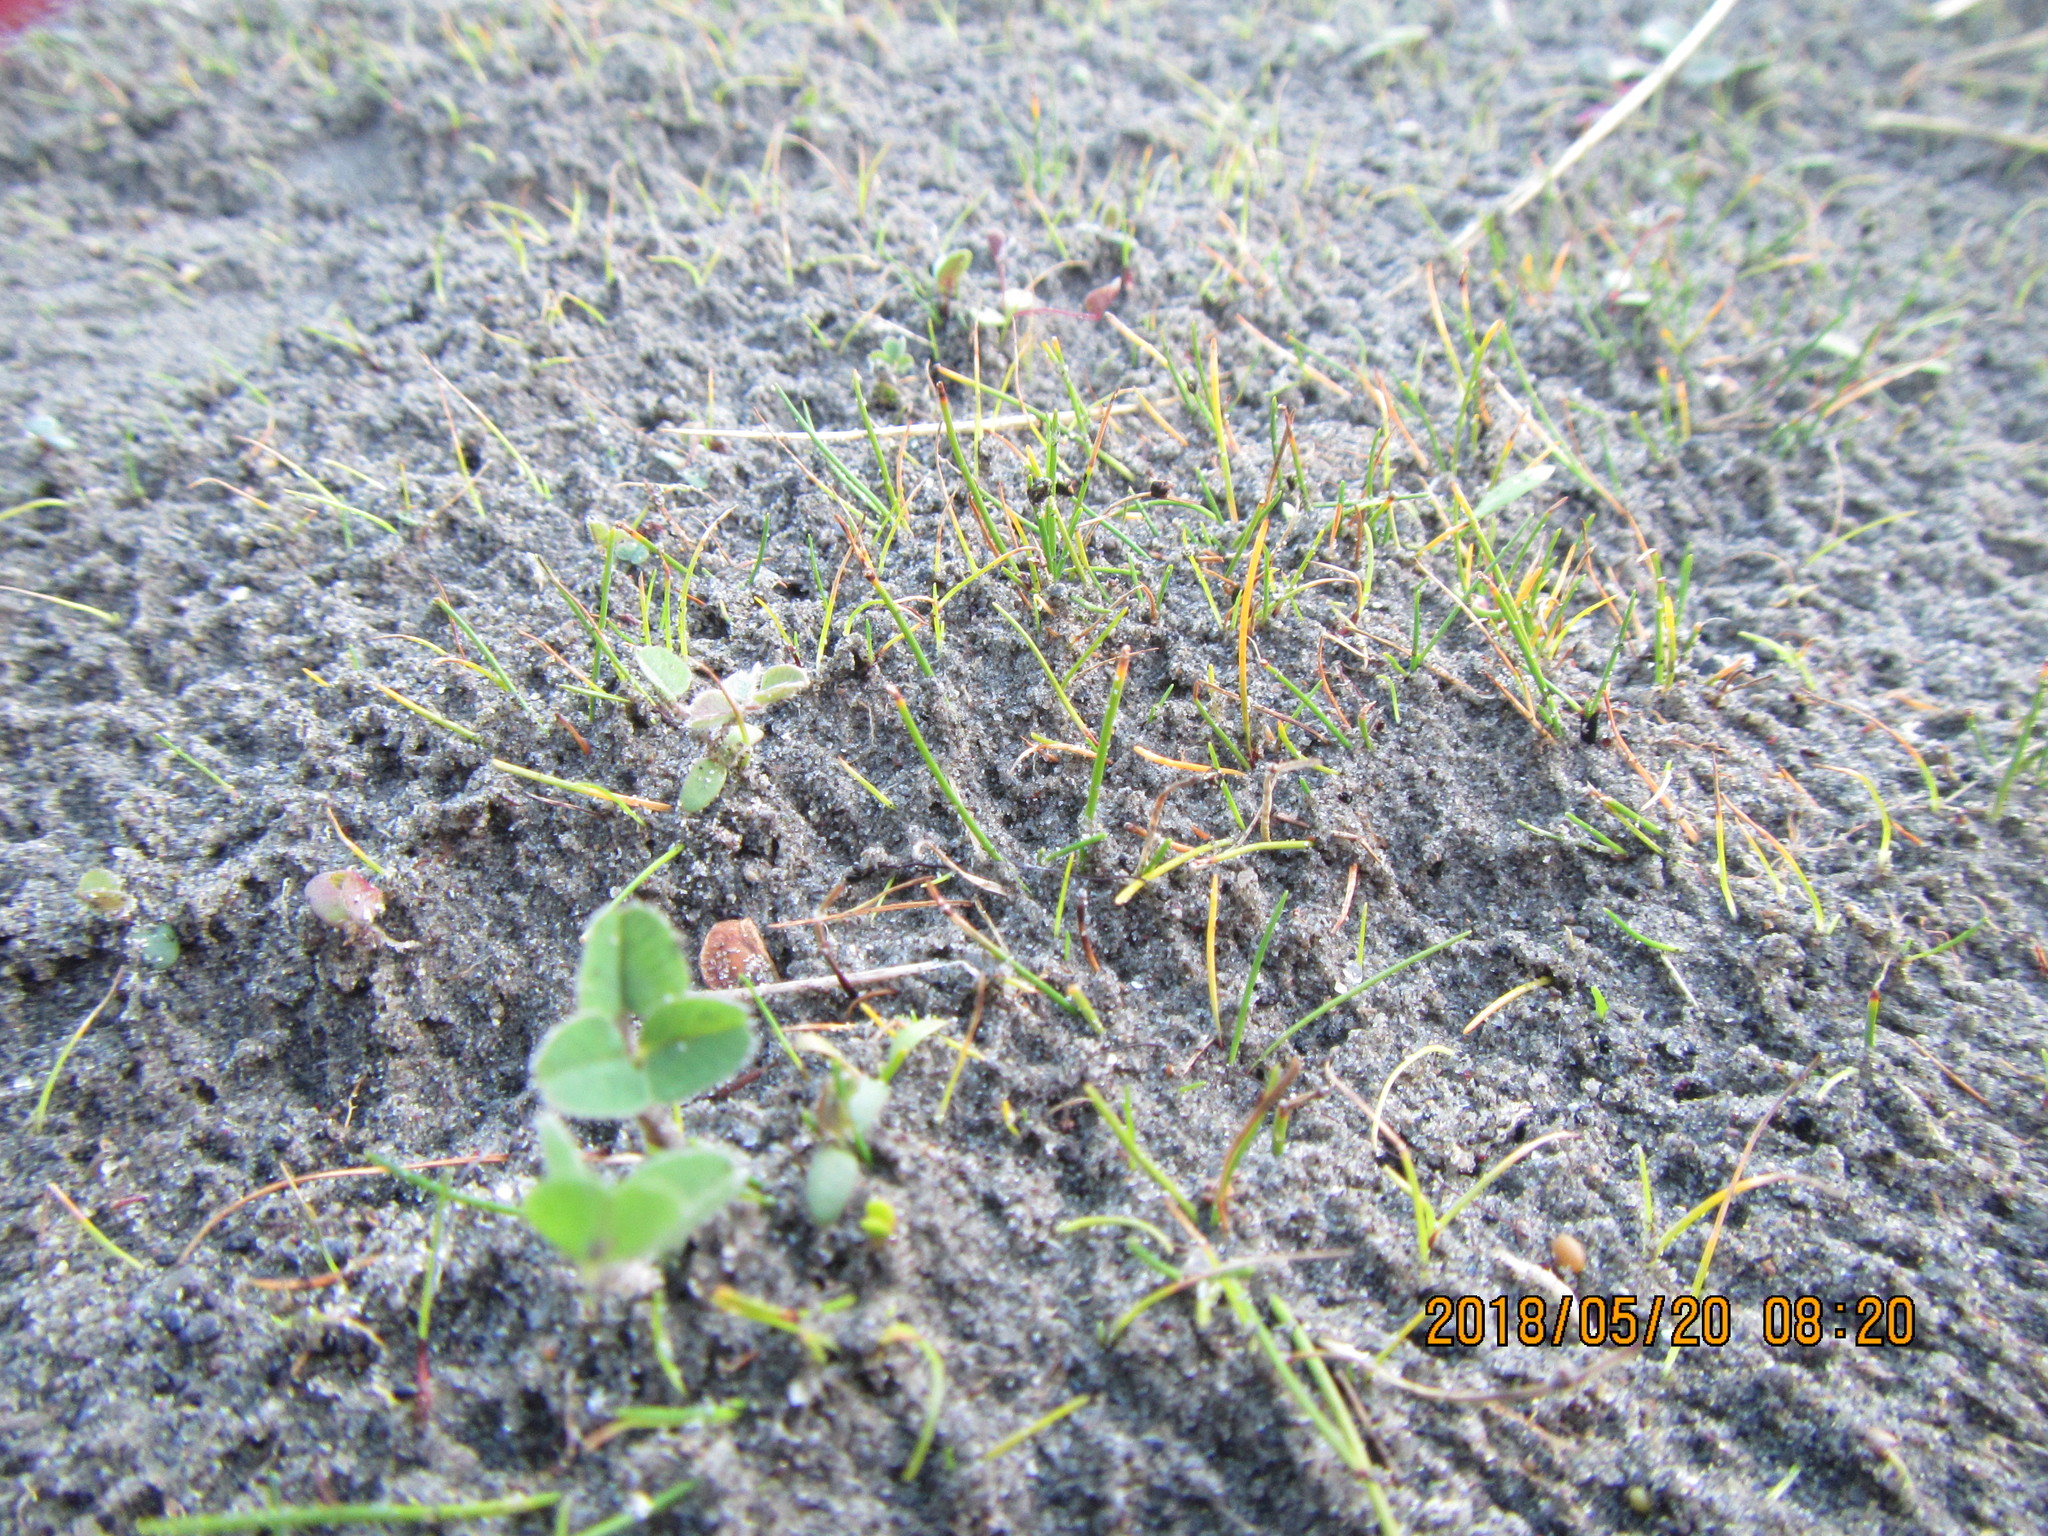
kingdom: Plantae
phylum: Tracheophyta
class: Liliopsida
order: Poales
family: Cyperaceae
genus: Isolepis
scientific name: Isolepis cernua
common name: Slender club-rush
